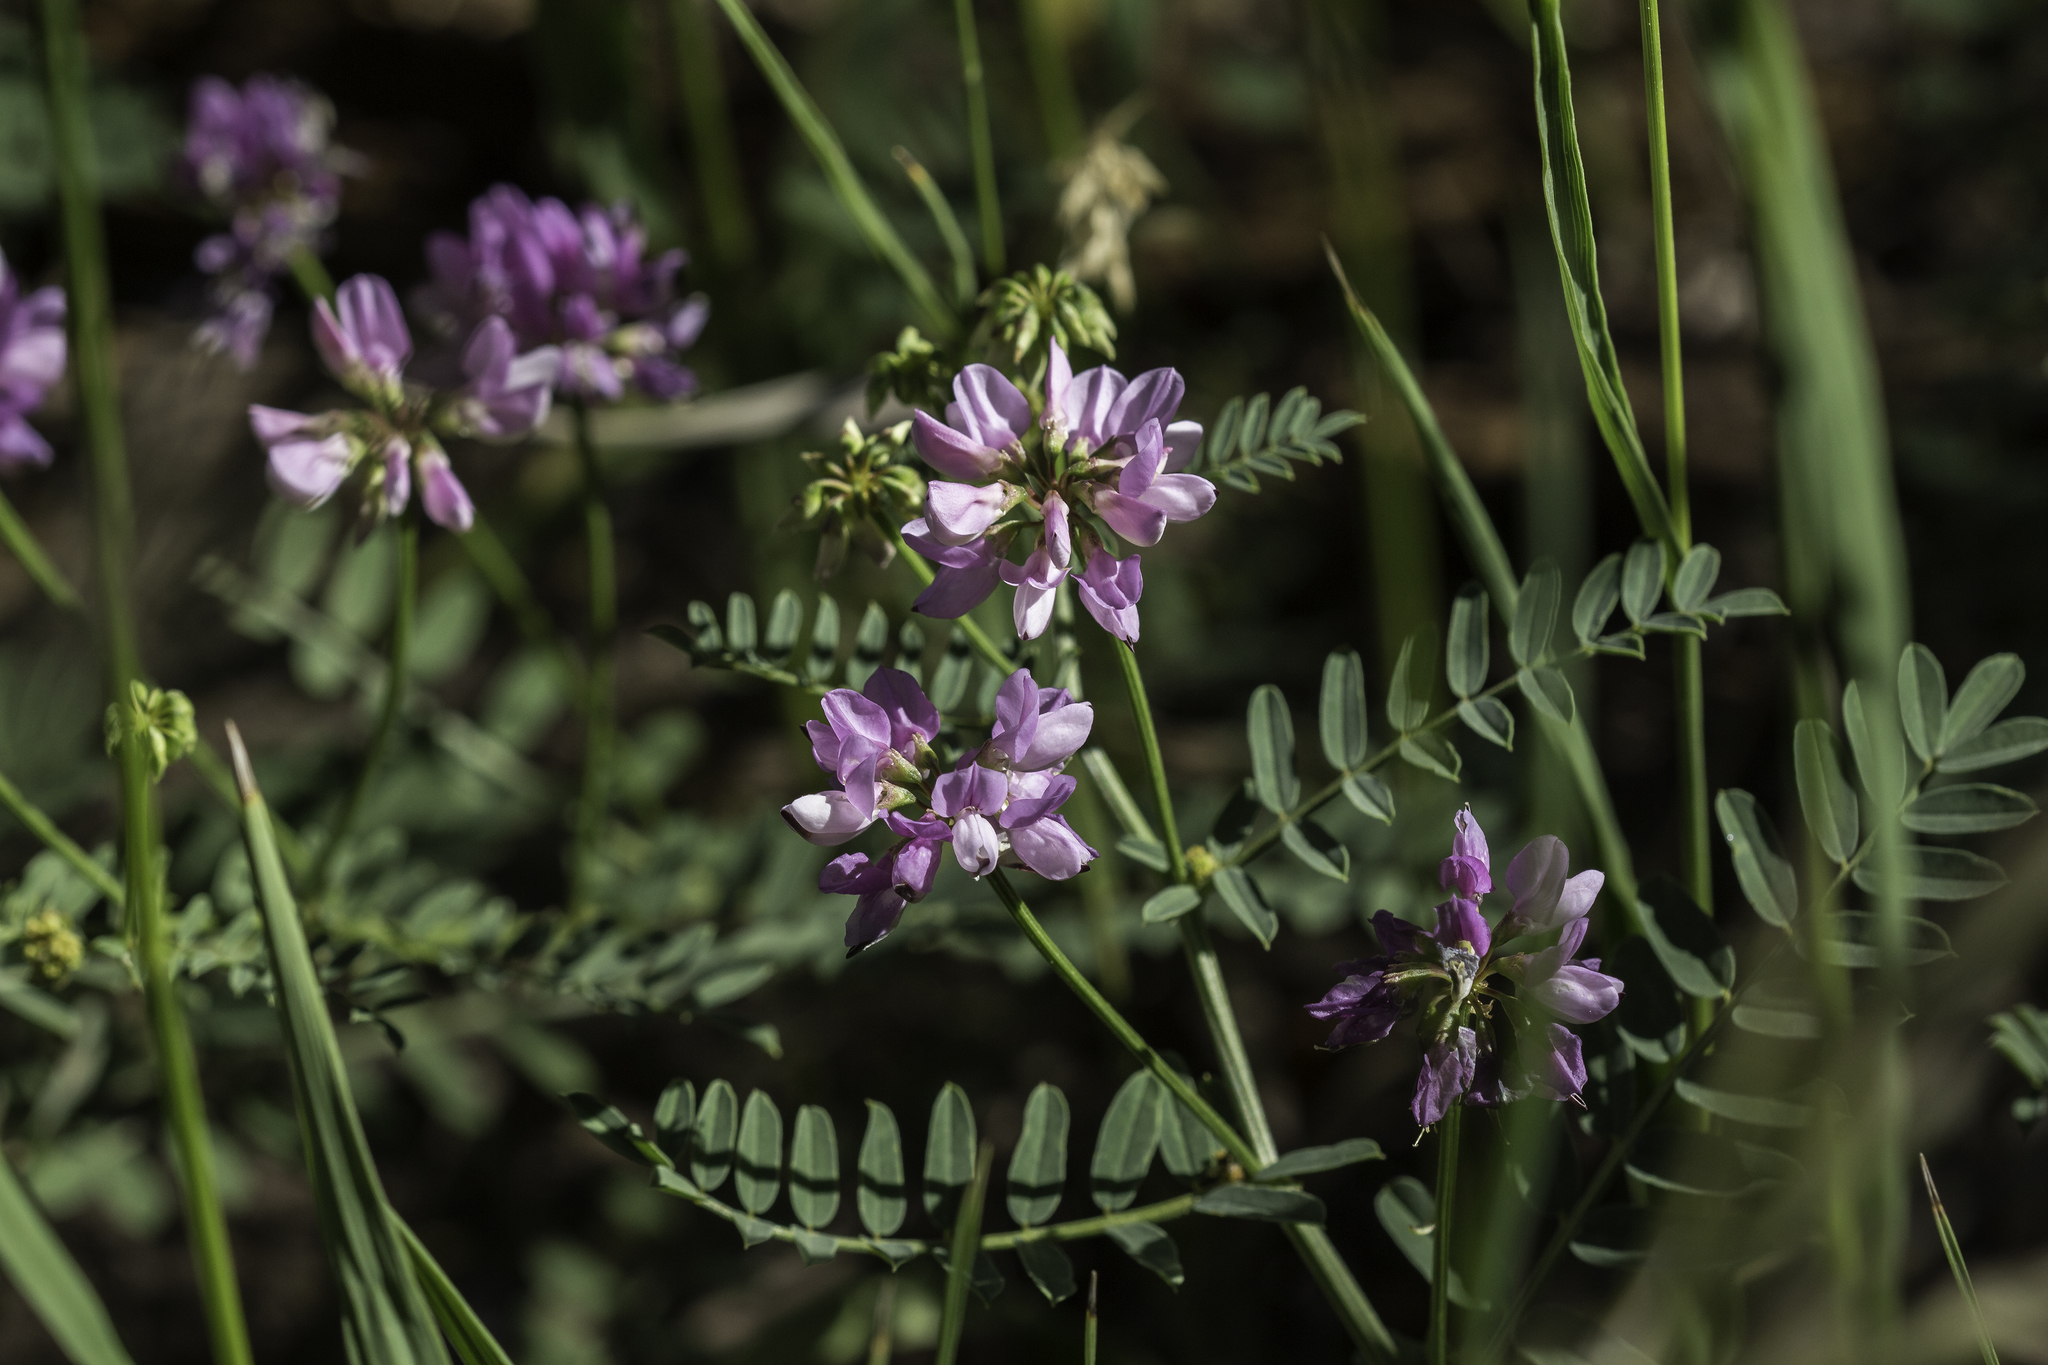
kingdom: Plantae
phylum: Tracheophyta
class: Magnoliopsida
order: Fabales
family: Fabaceae
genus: Coronilla
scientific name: Coronilla varia
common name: Crownvetch
